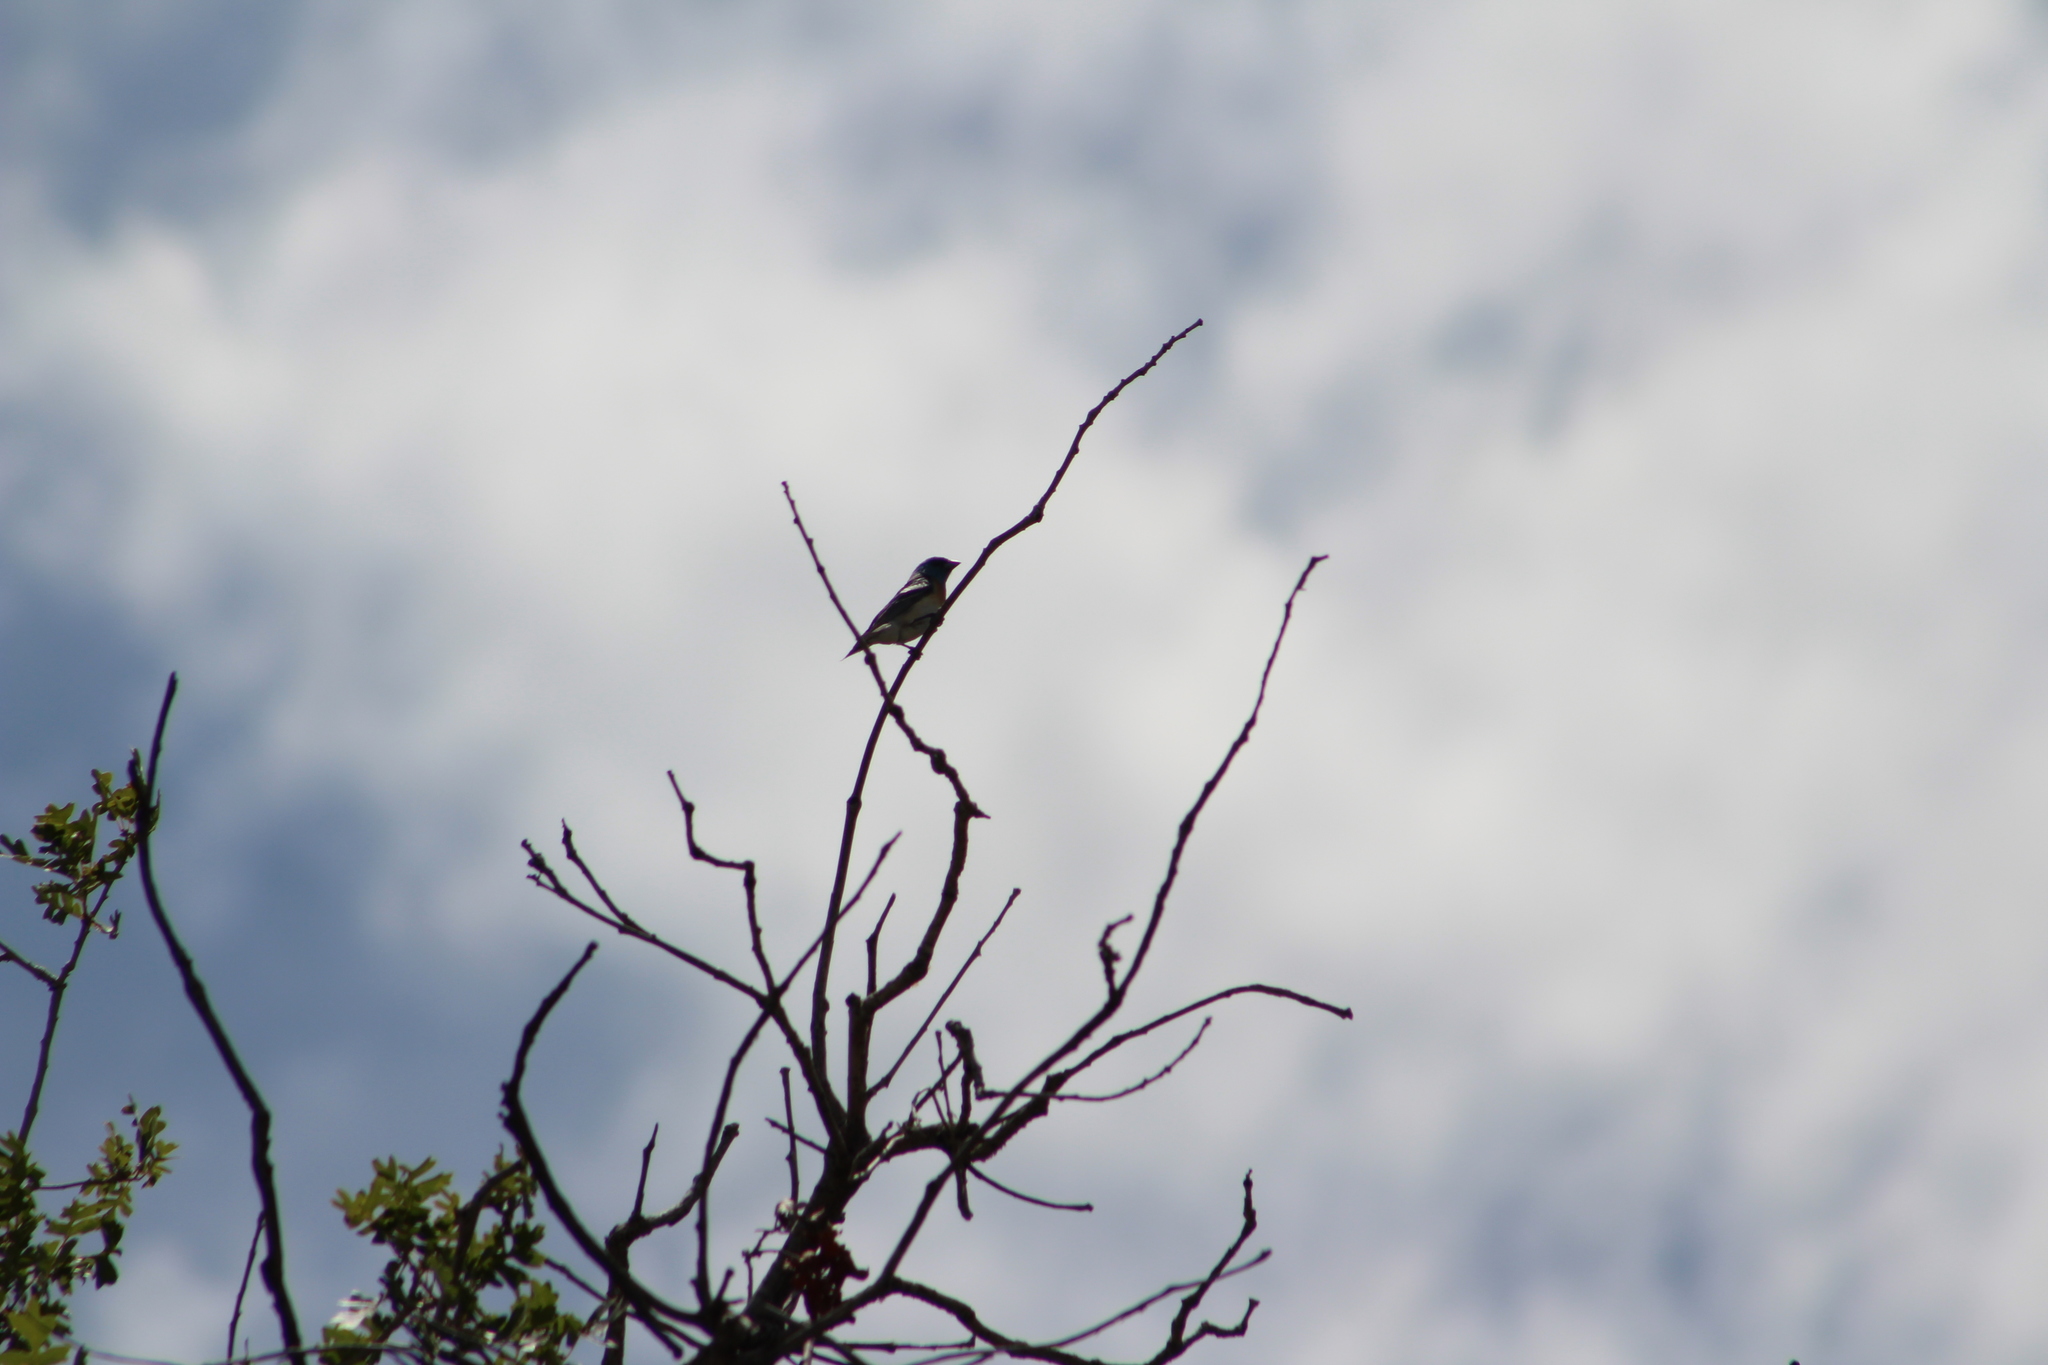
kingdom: Animalia
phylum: Chordata
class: Aves
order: Passeriformes
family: Cardinalidae
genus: Passerina
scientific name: Passerina amoena
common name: Lazuli bunting
